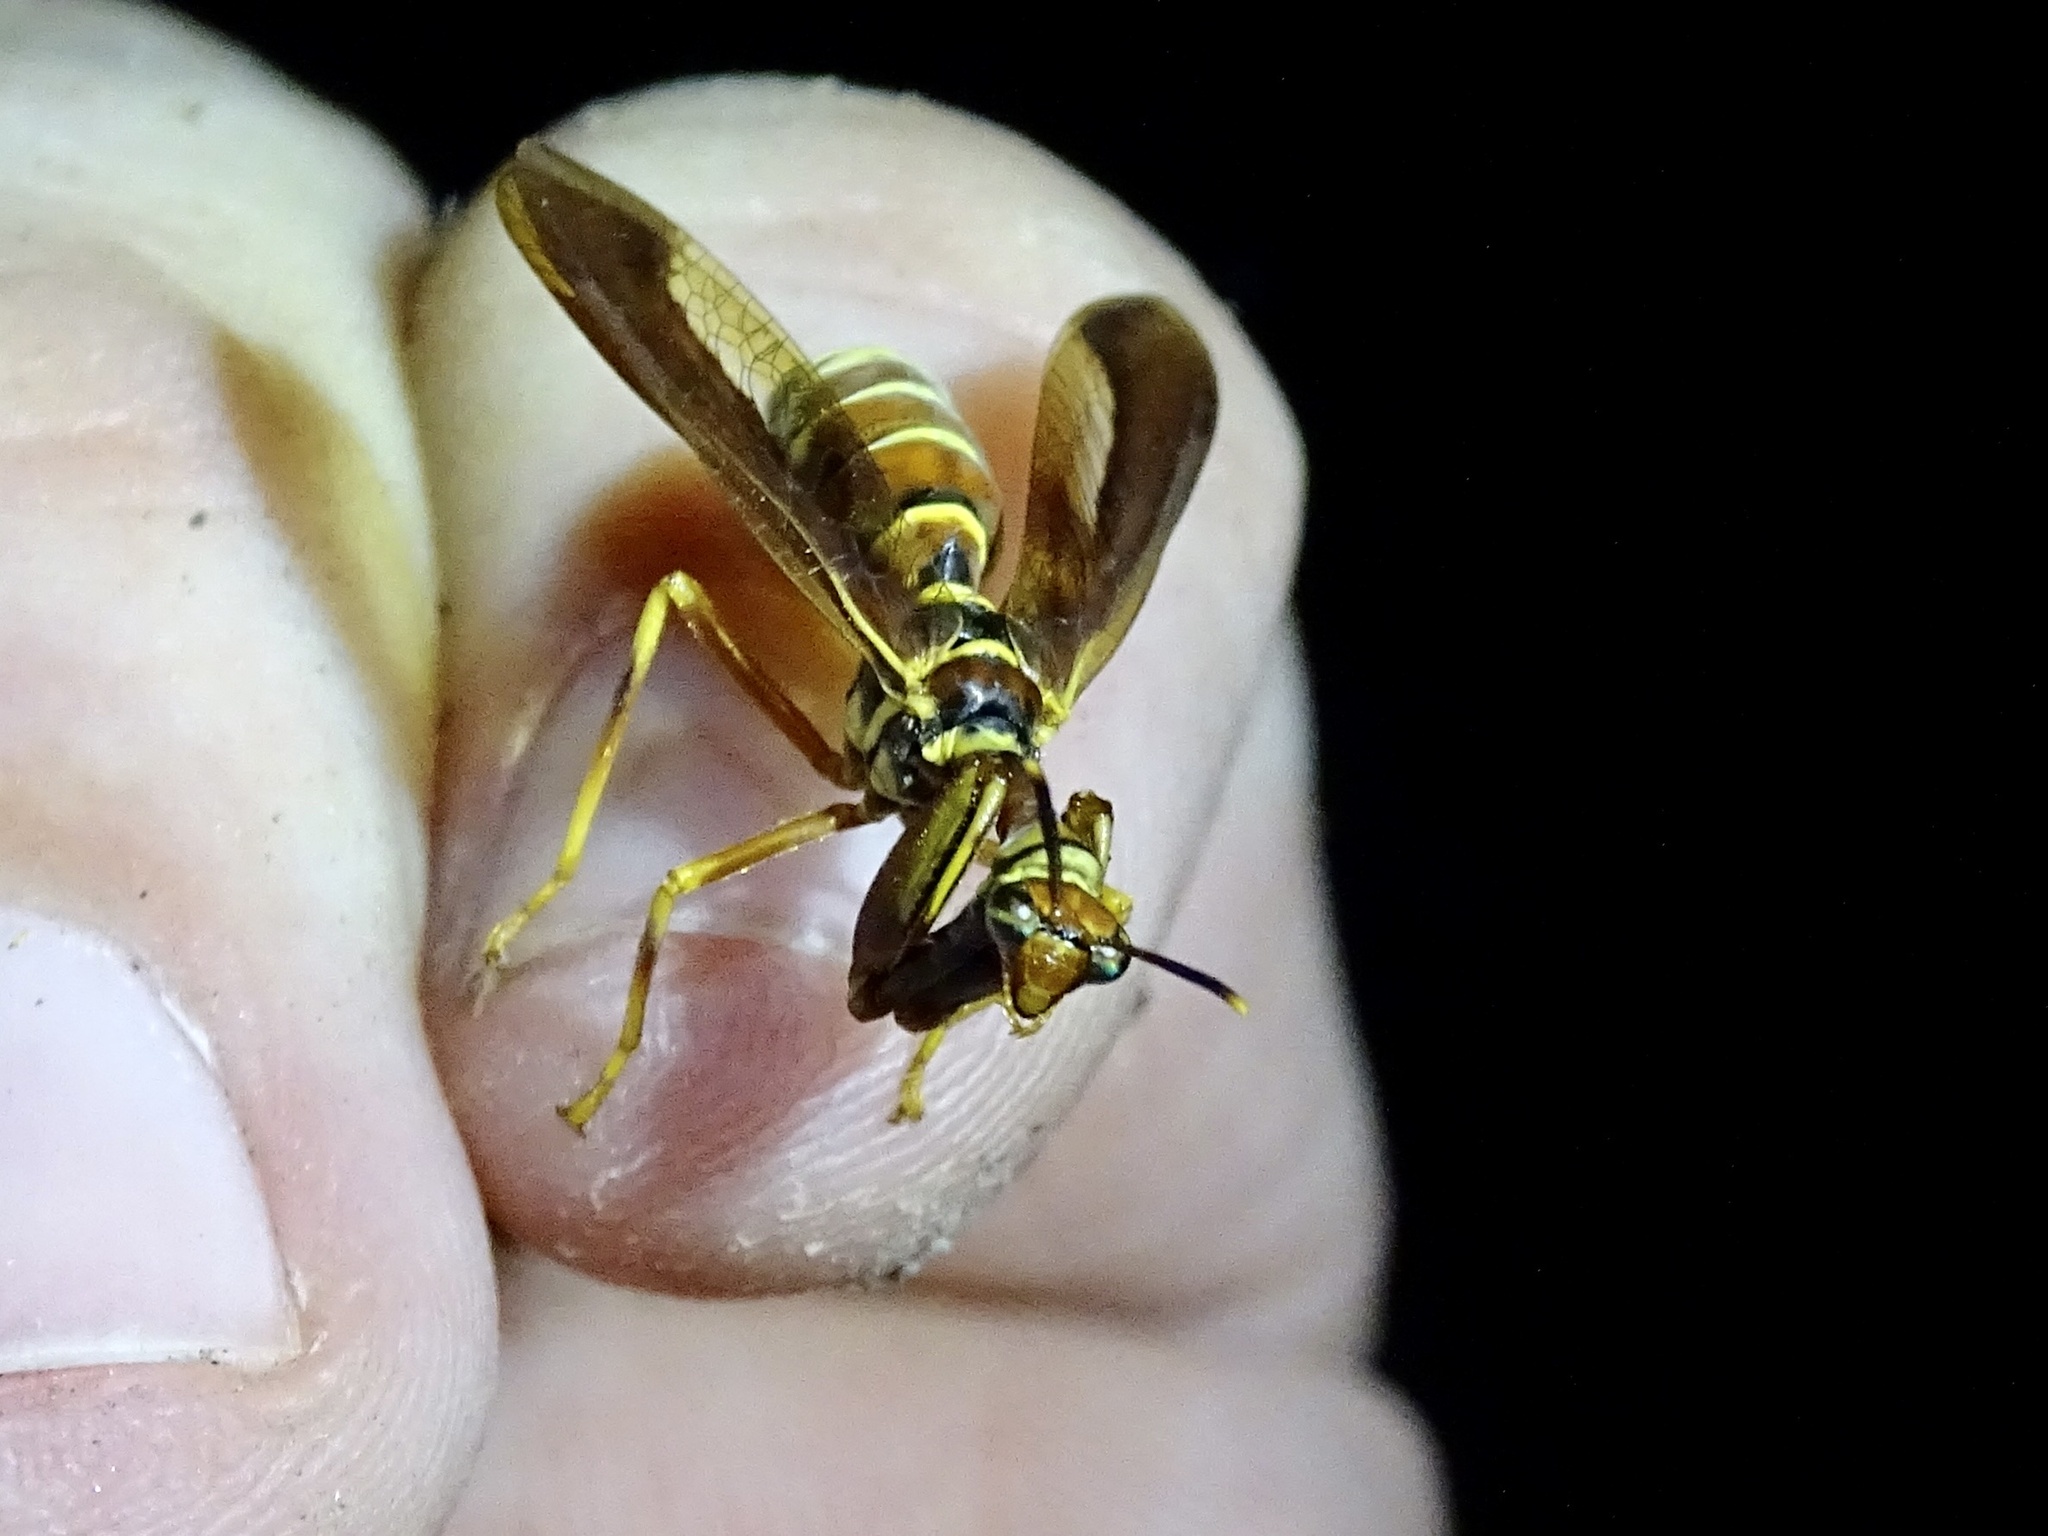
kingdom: Animalia
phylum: Arthropoda
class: Insecta
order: Neuroptera
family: Mantispidae
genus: Climaciella
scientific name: Climaciella brunnea
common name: Brown wasp mantidfly
